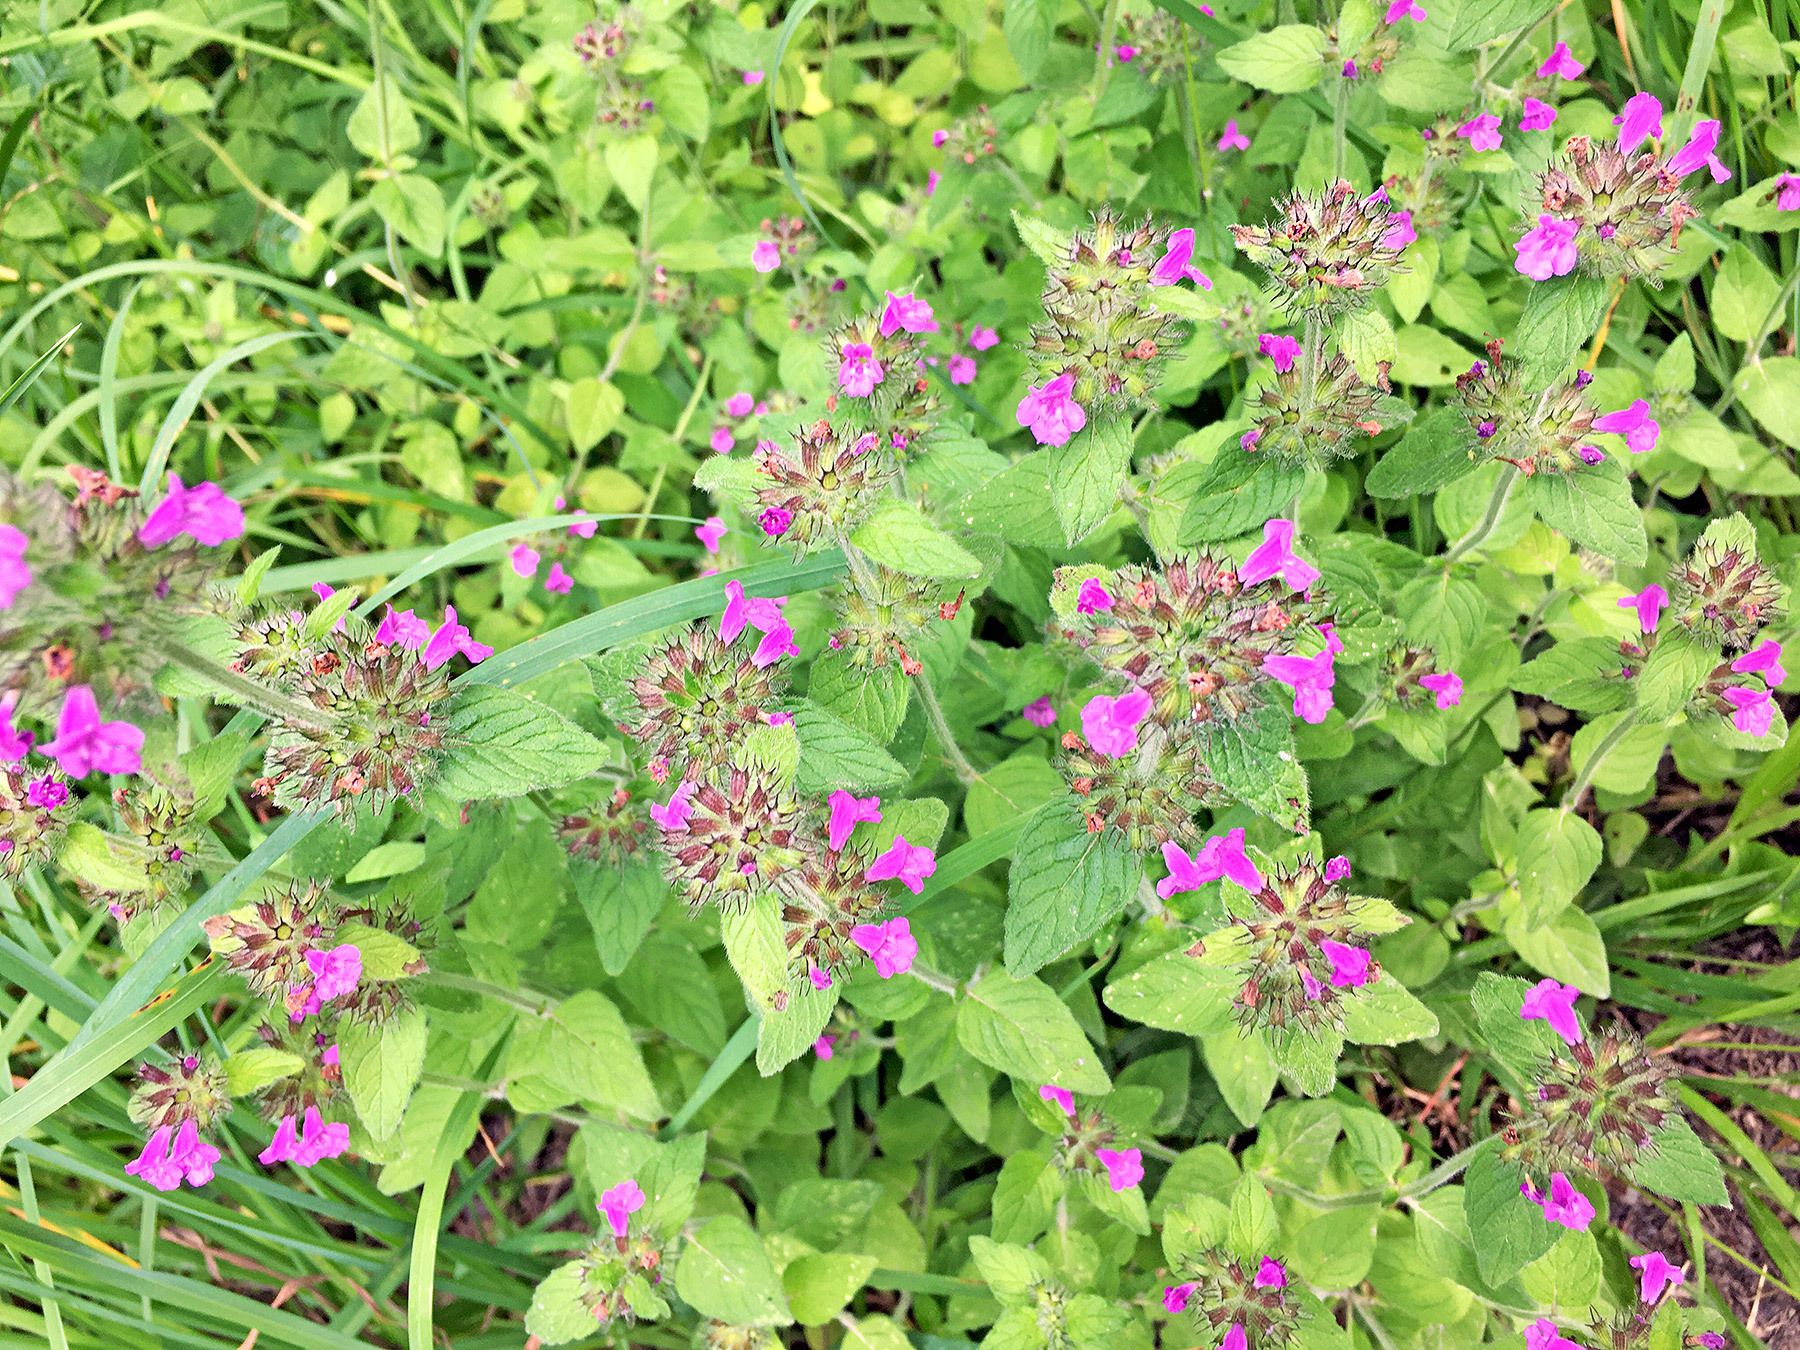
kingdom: Plantae
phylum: Tracheophyta
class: Magnoliopsida
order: Lamiales
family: Lamiaceae
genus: Clinopodium
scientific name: Clinopodium vulgare
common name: Wild basil
